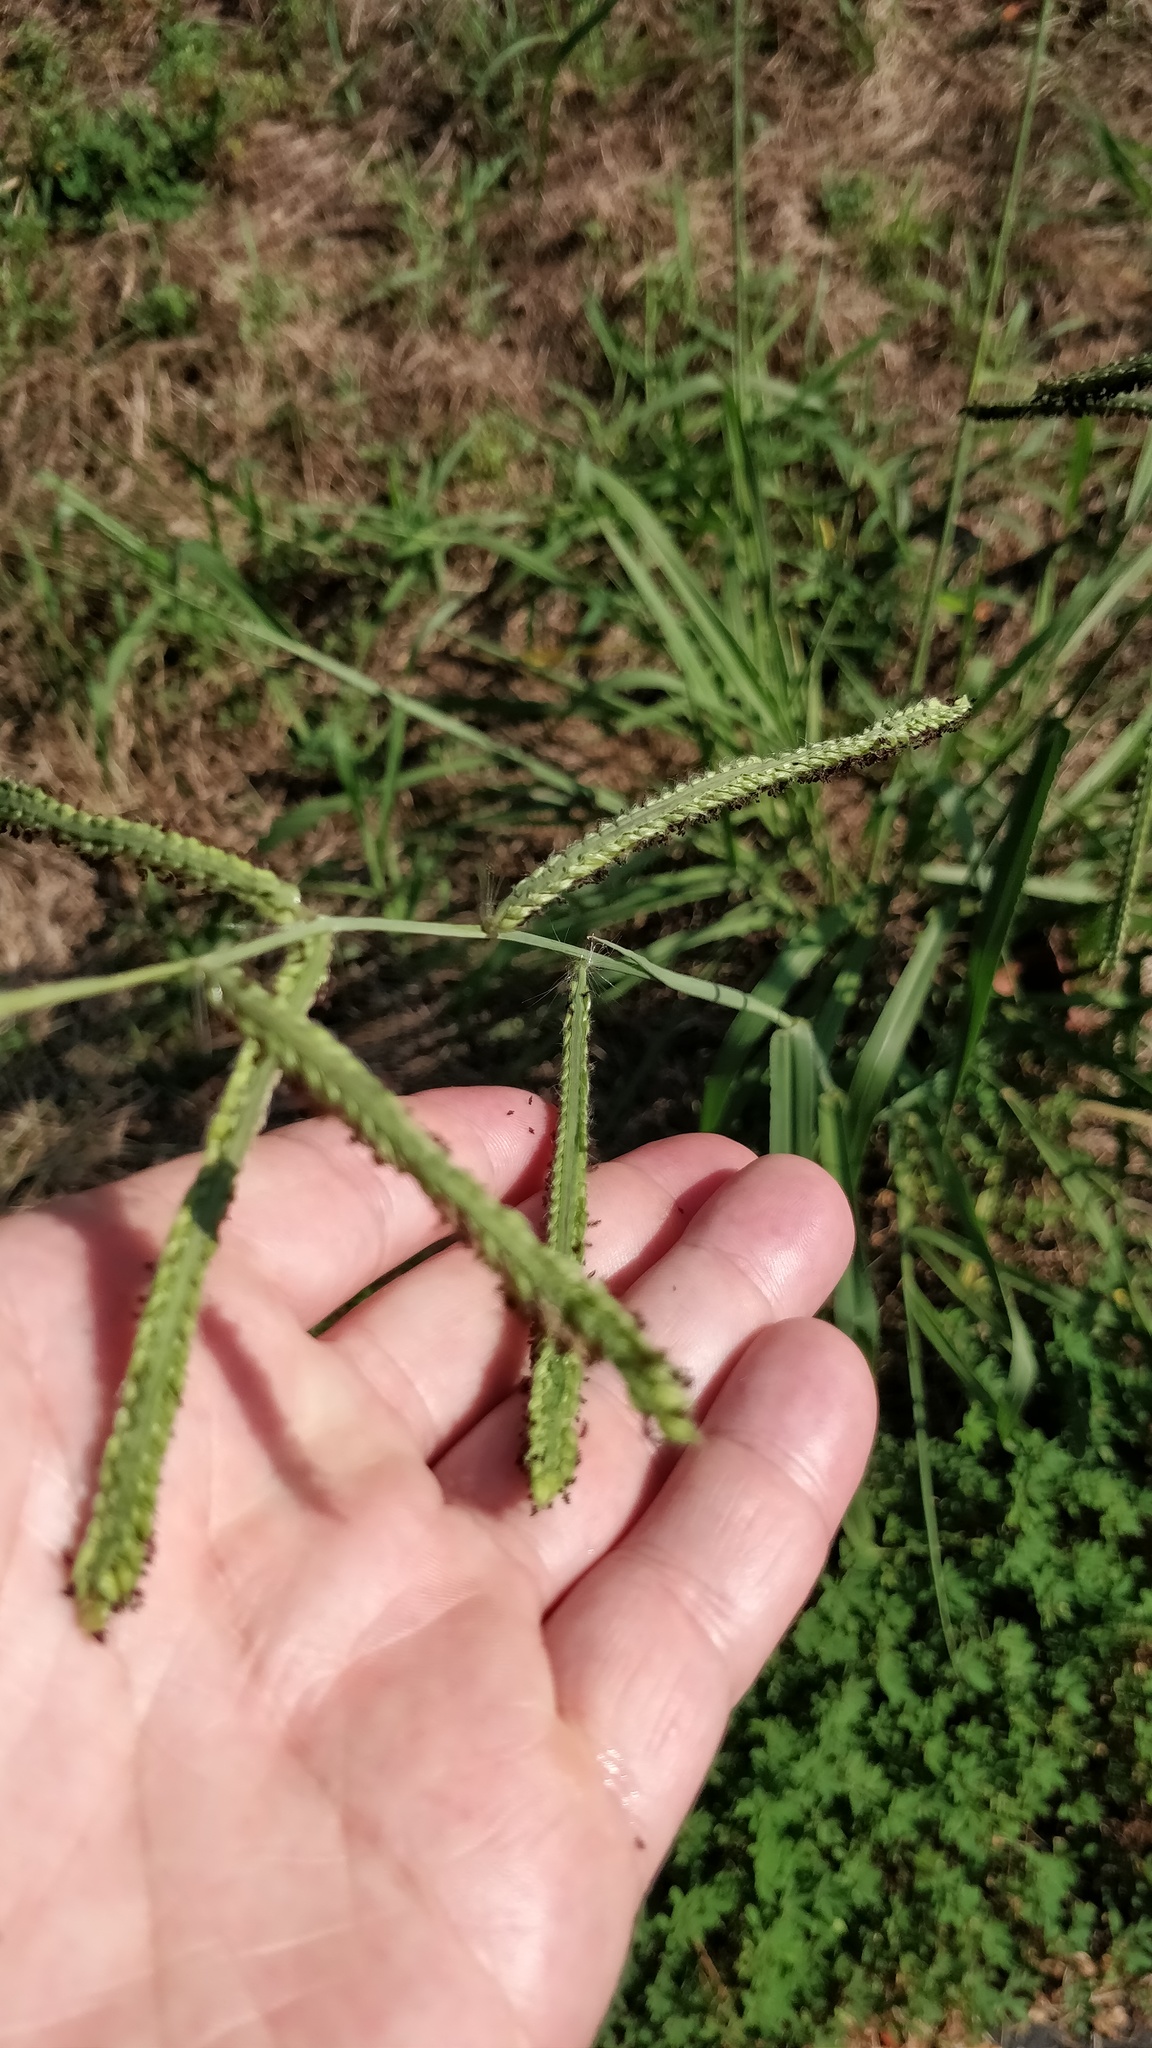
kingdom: Plantae
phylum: Tracheophyta
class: Liliopsida
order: Poales
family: Poaceae
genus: Paspalum
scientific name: Paspalum dilatatum
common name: Dallisgrass
